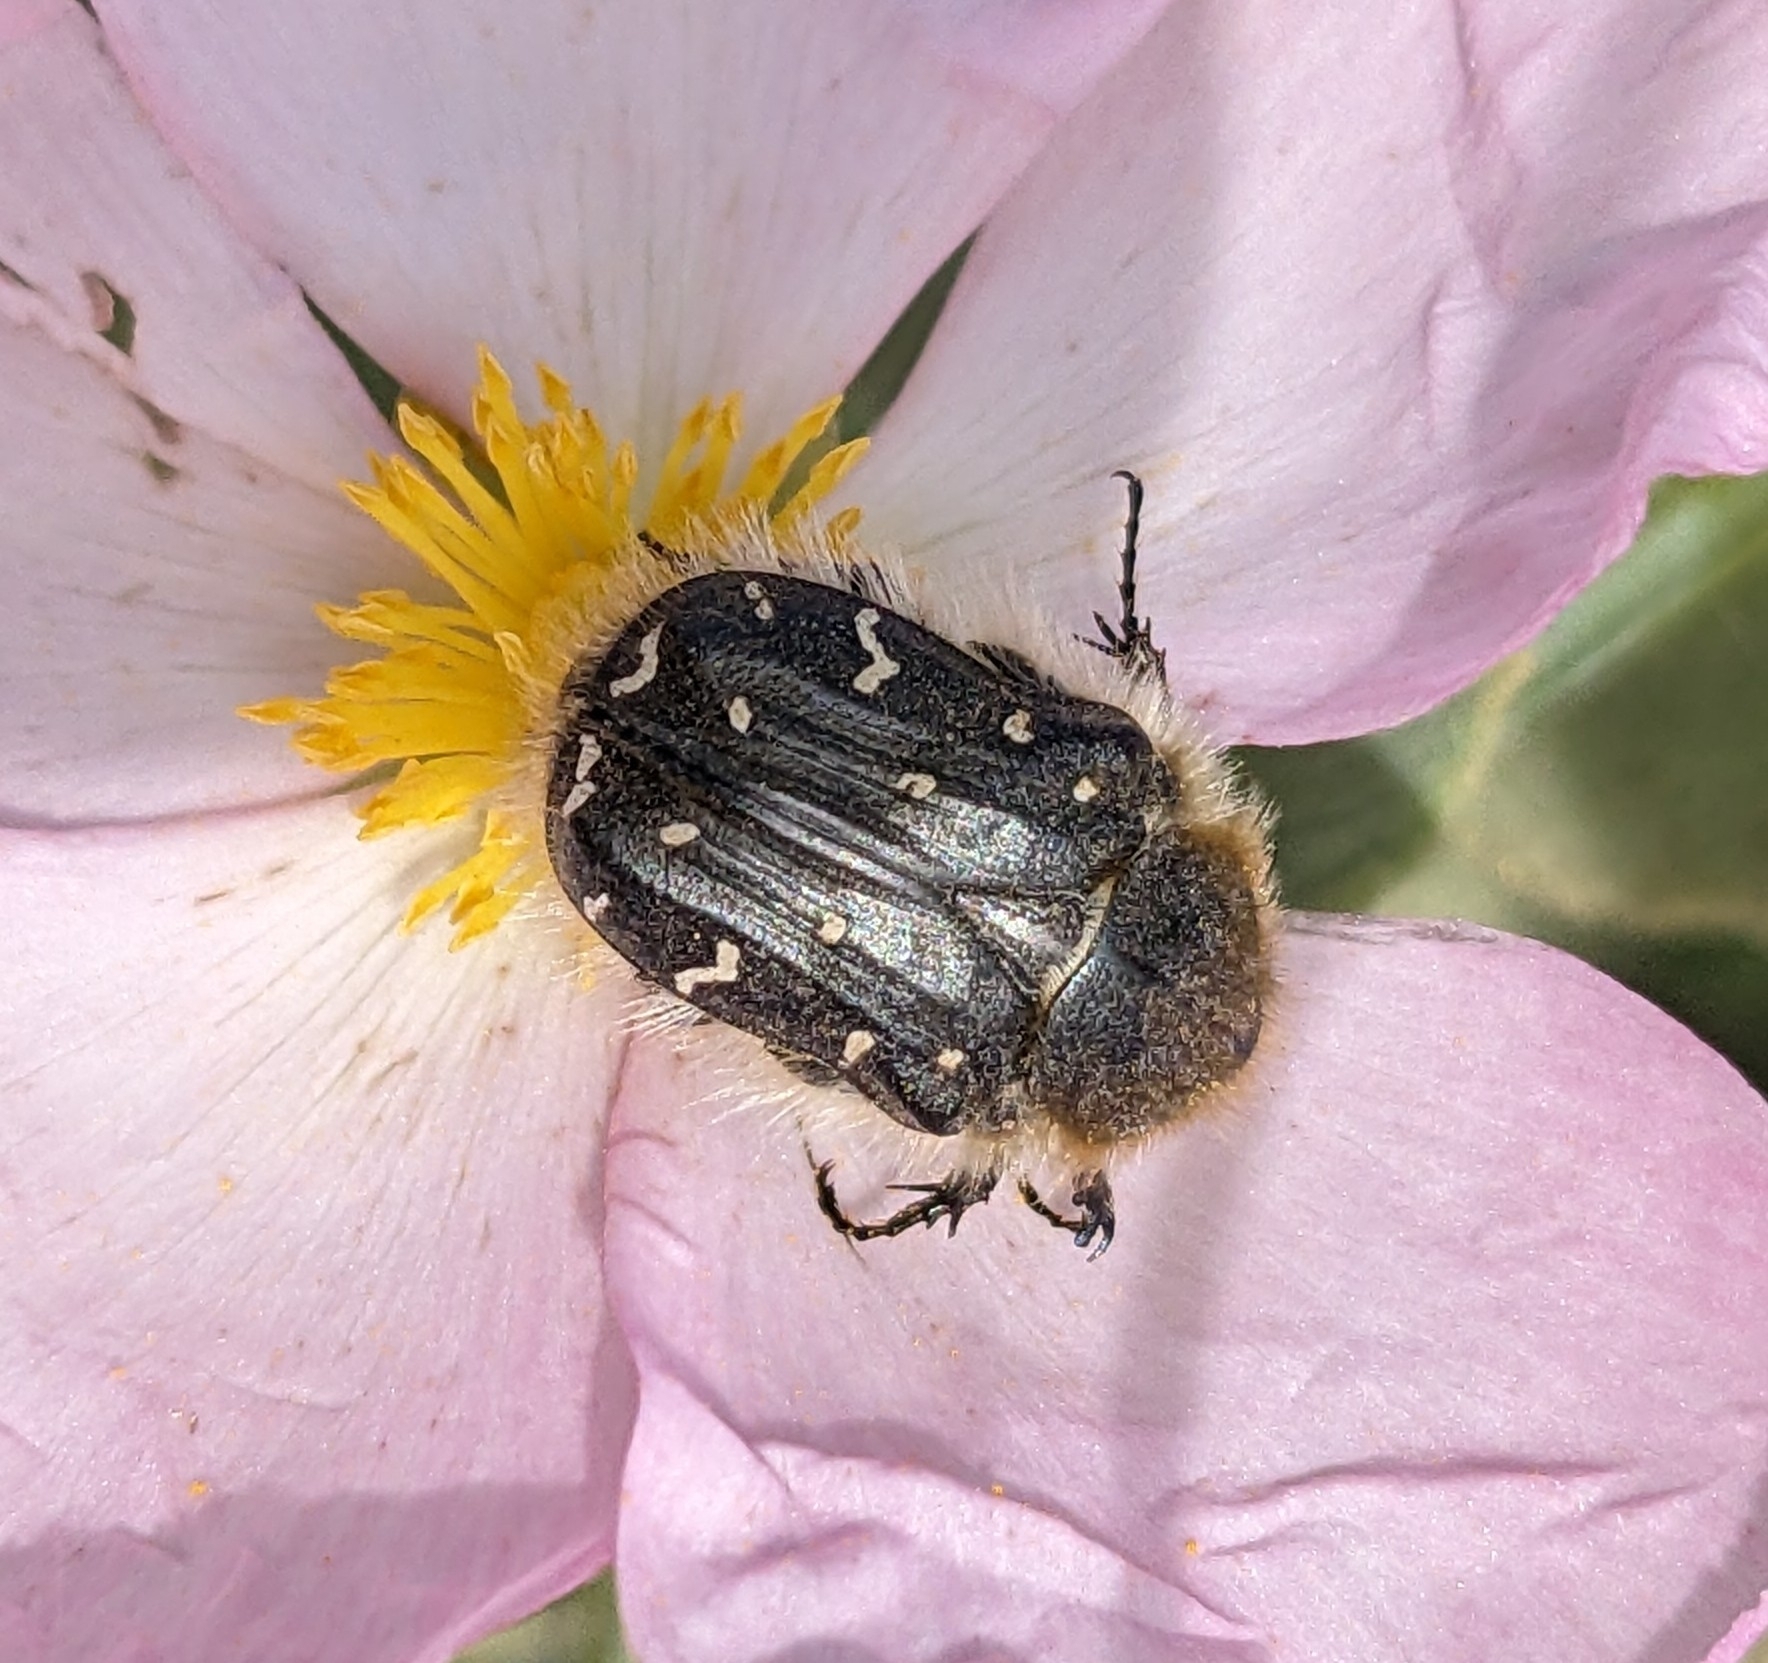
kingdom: Animalia
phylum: Arthropoda
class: Insecta
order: Coleoptera
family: Scarabaeidae
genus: Tropinota
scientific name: Tropinota hirta
